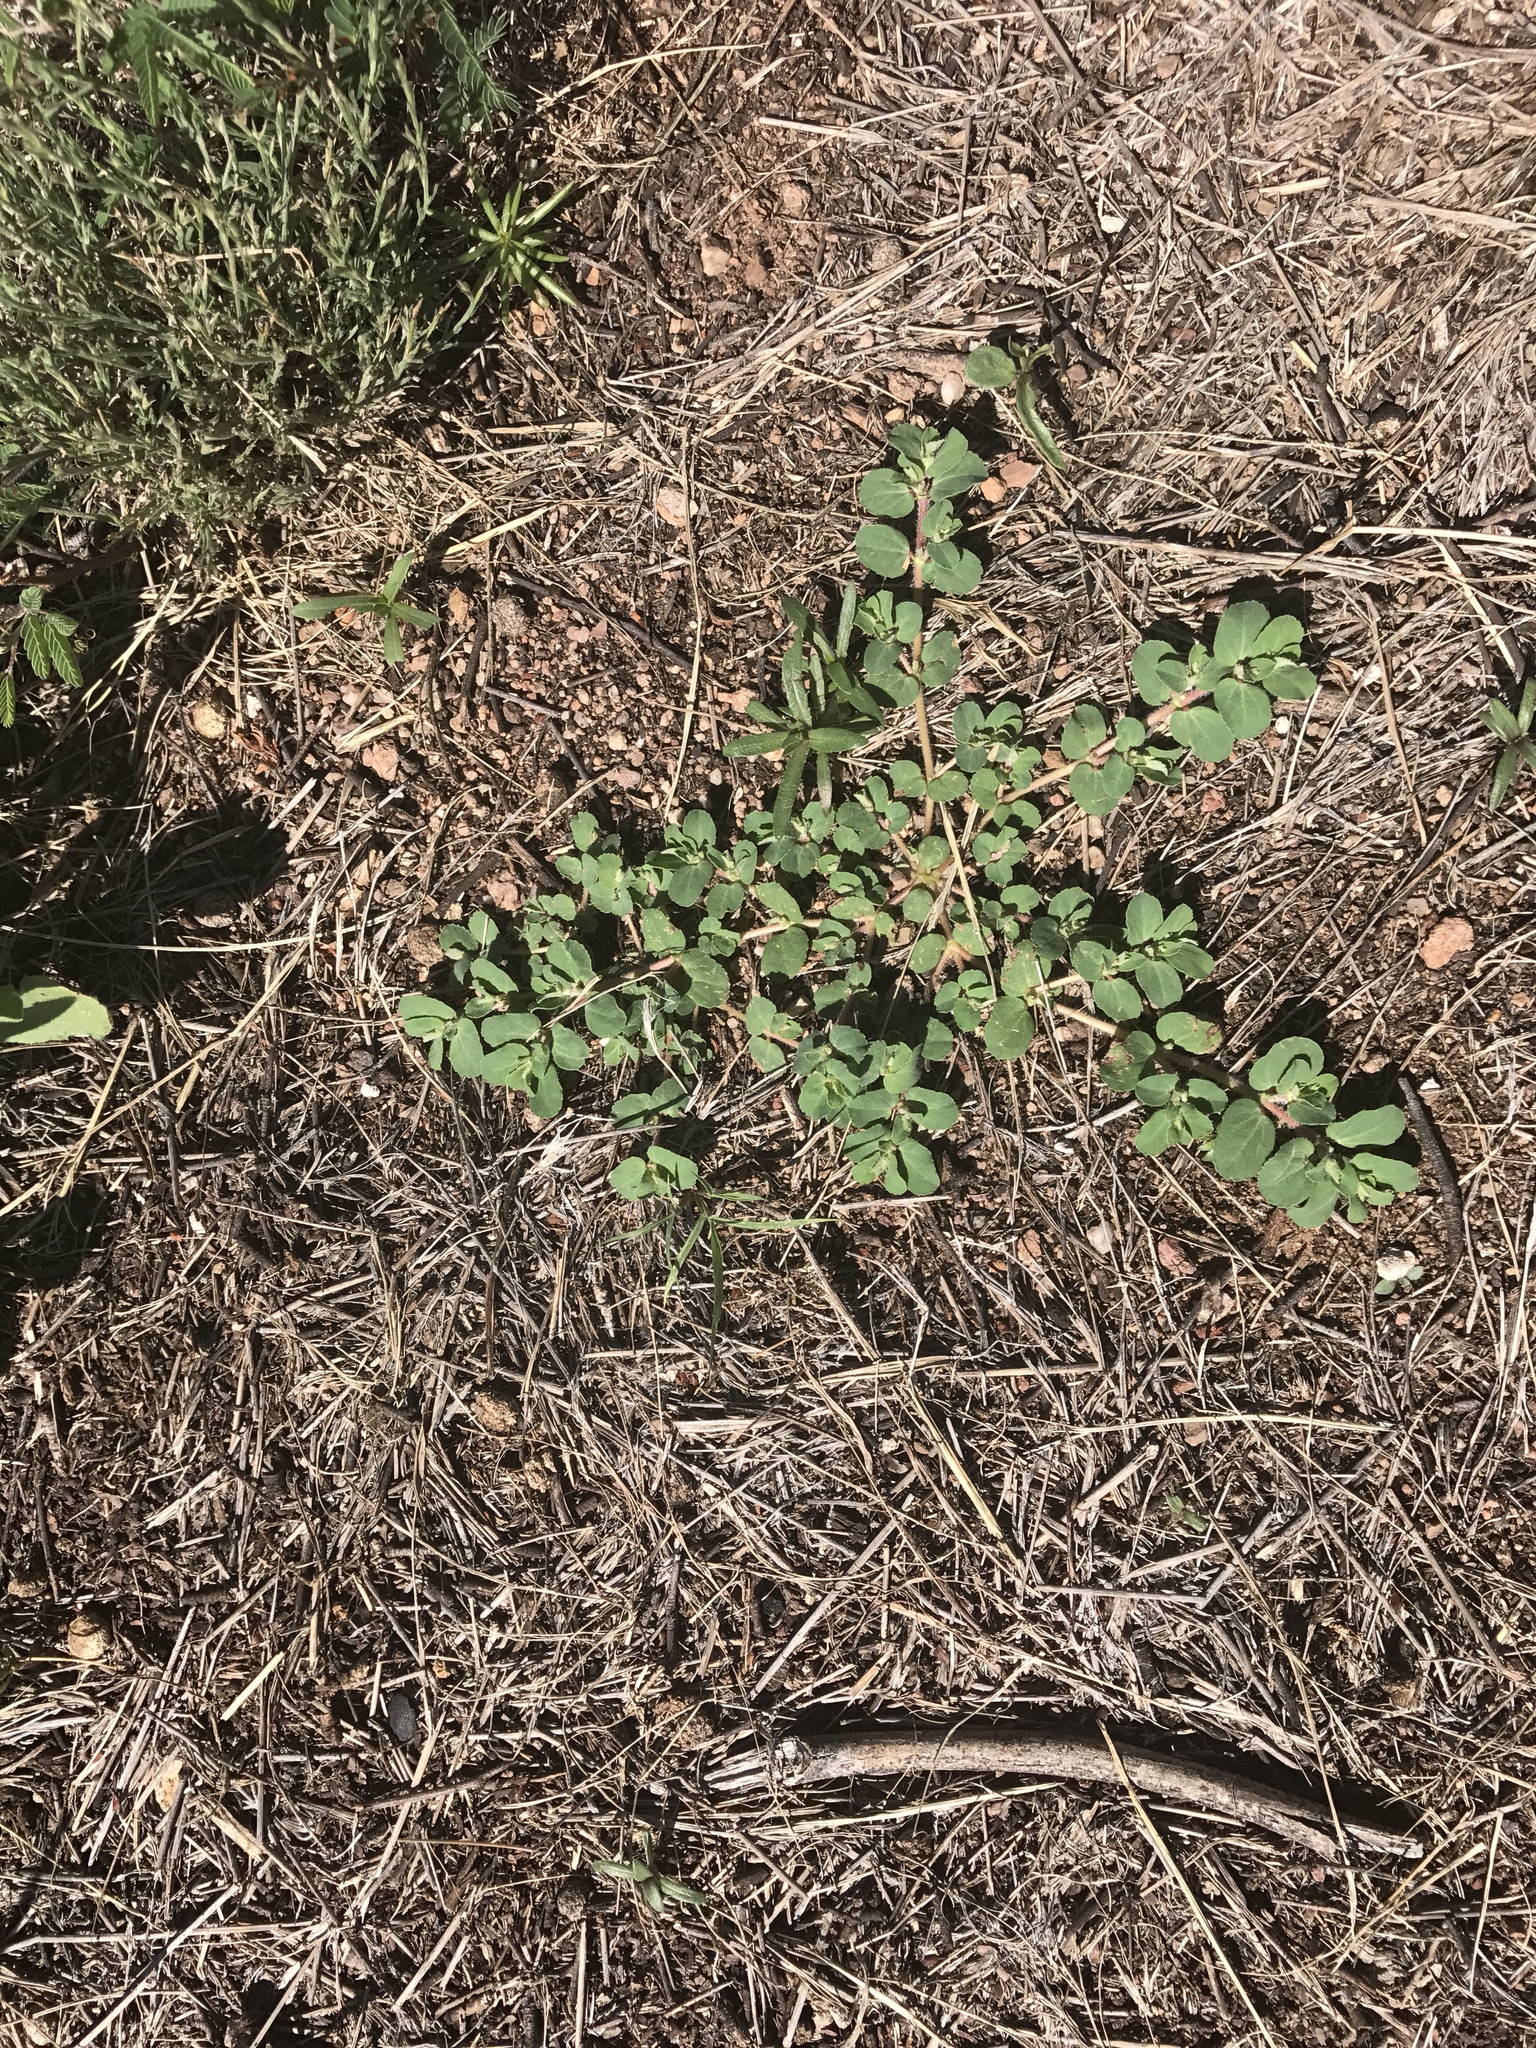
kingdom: Plantae
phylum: Tracheophyta
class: Magnoliopsida
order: Malpighiales
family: Euphorbiaceae
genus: Euphorbia
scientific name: Euphorbia stictospora
